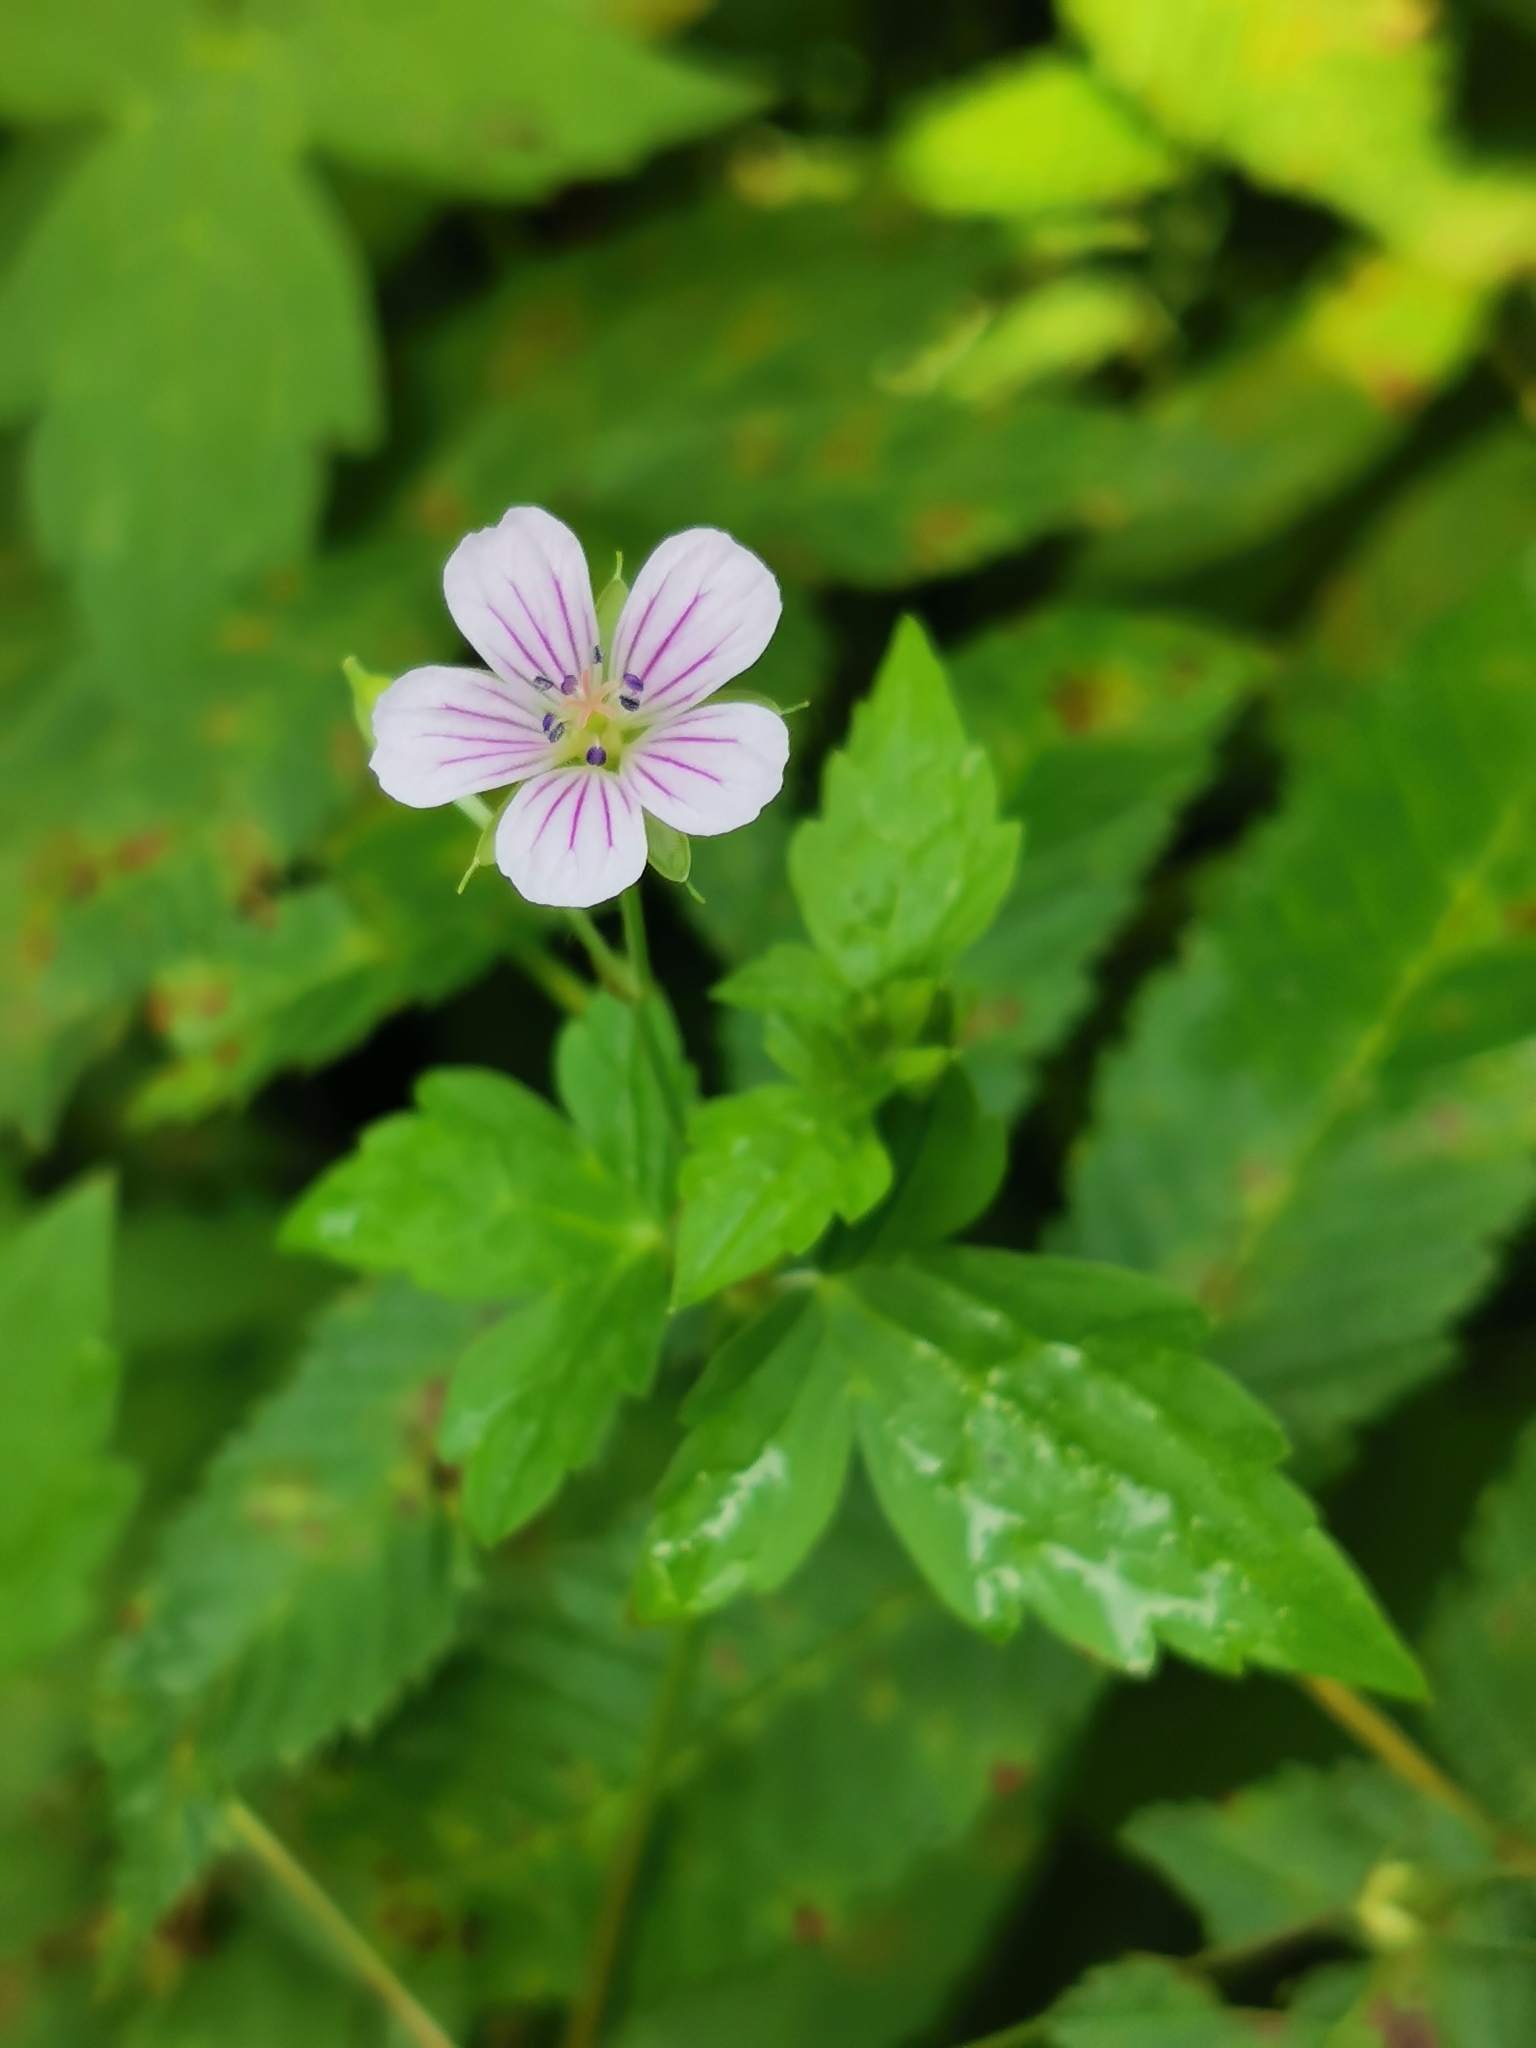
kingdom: Plantae
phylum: Tracheophyta
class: Magnoliopsida
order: Geraniales
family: Geraniaceae
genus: Geranium
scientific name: Geranium wilfordii
